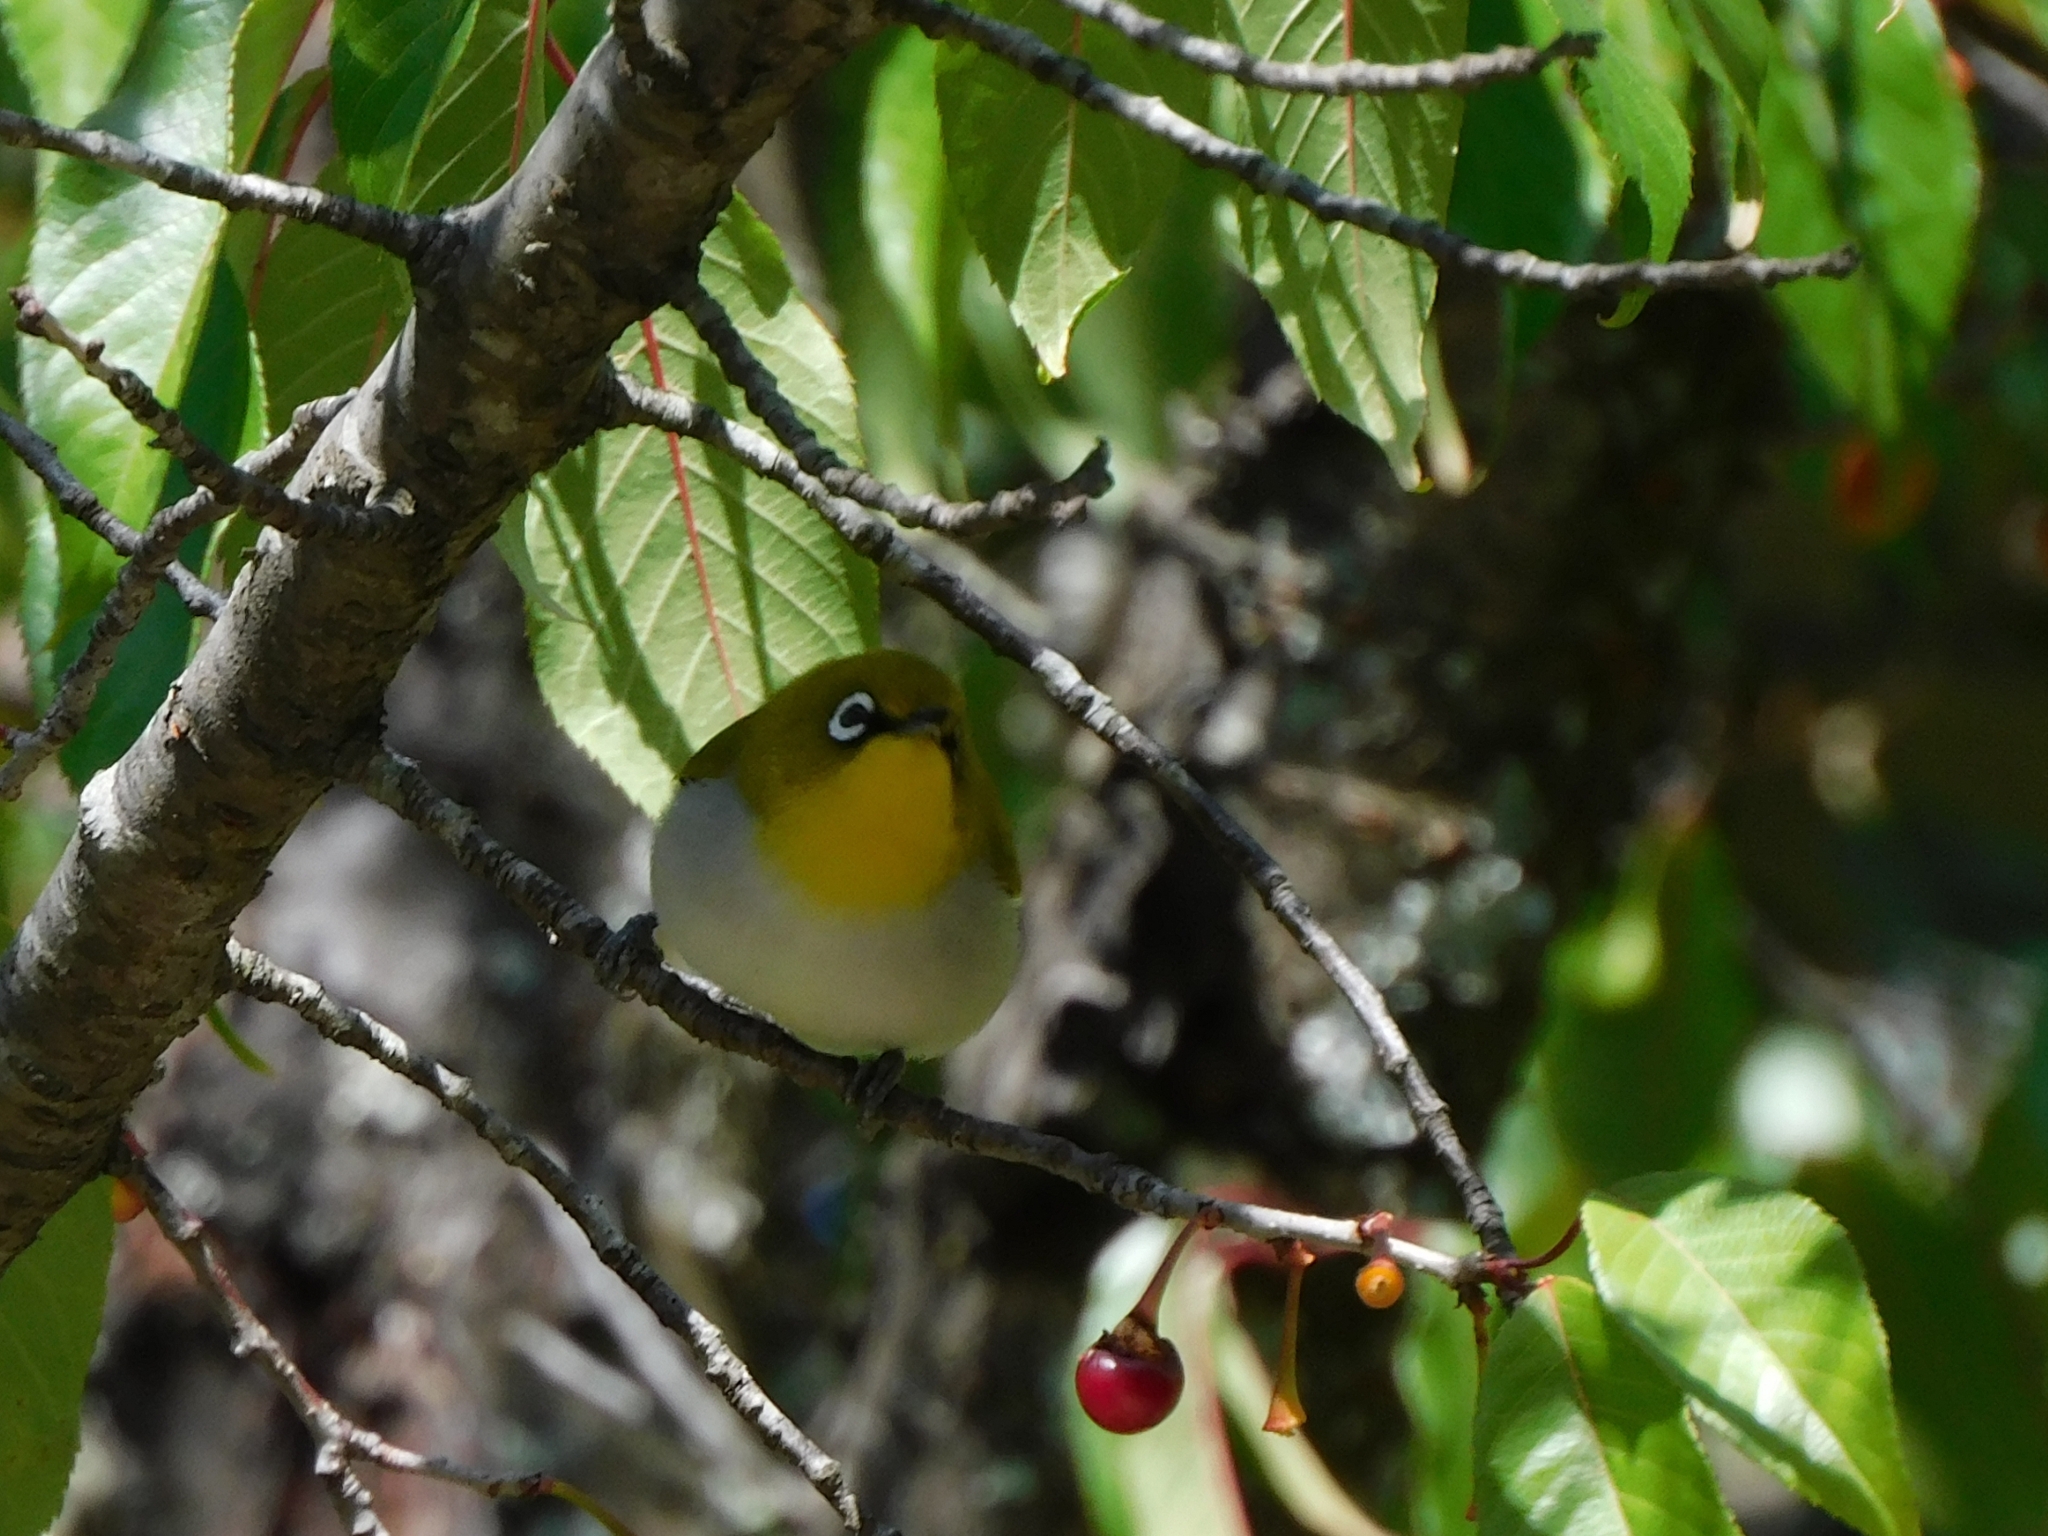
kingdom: Animalia
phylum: Chordata
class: Aves
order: Passeriformes
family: Zosteropidae
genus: Zosterops
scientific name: Zosterops palpebrosus
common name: Oriental white-eye
